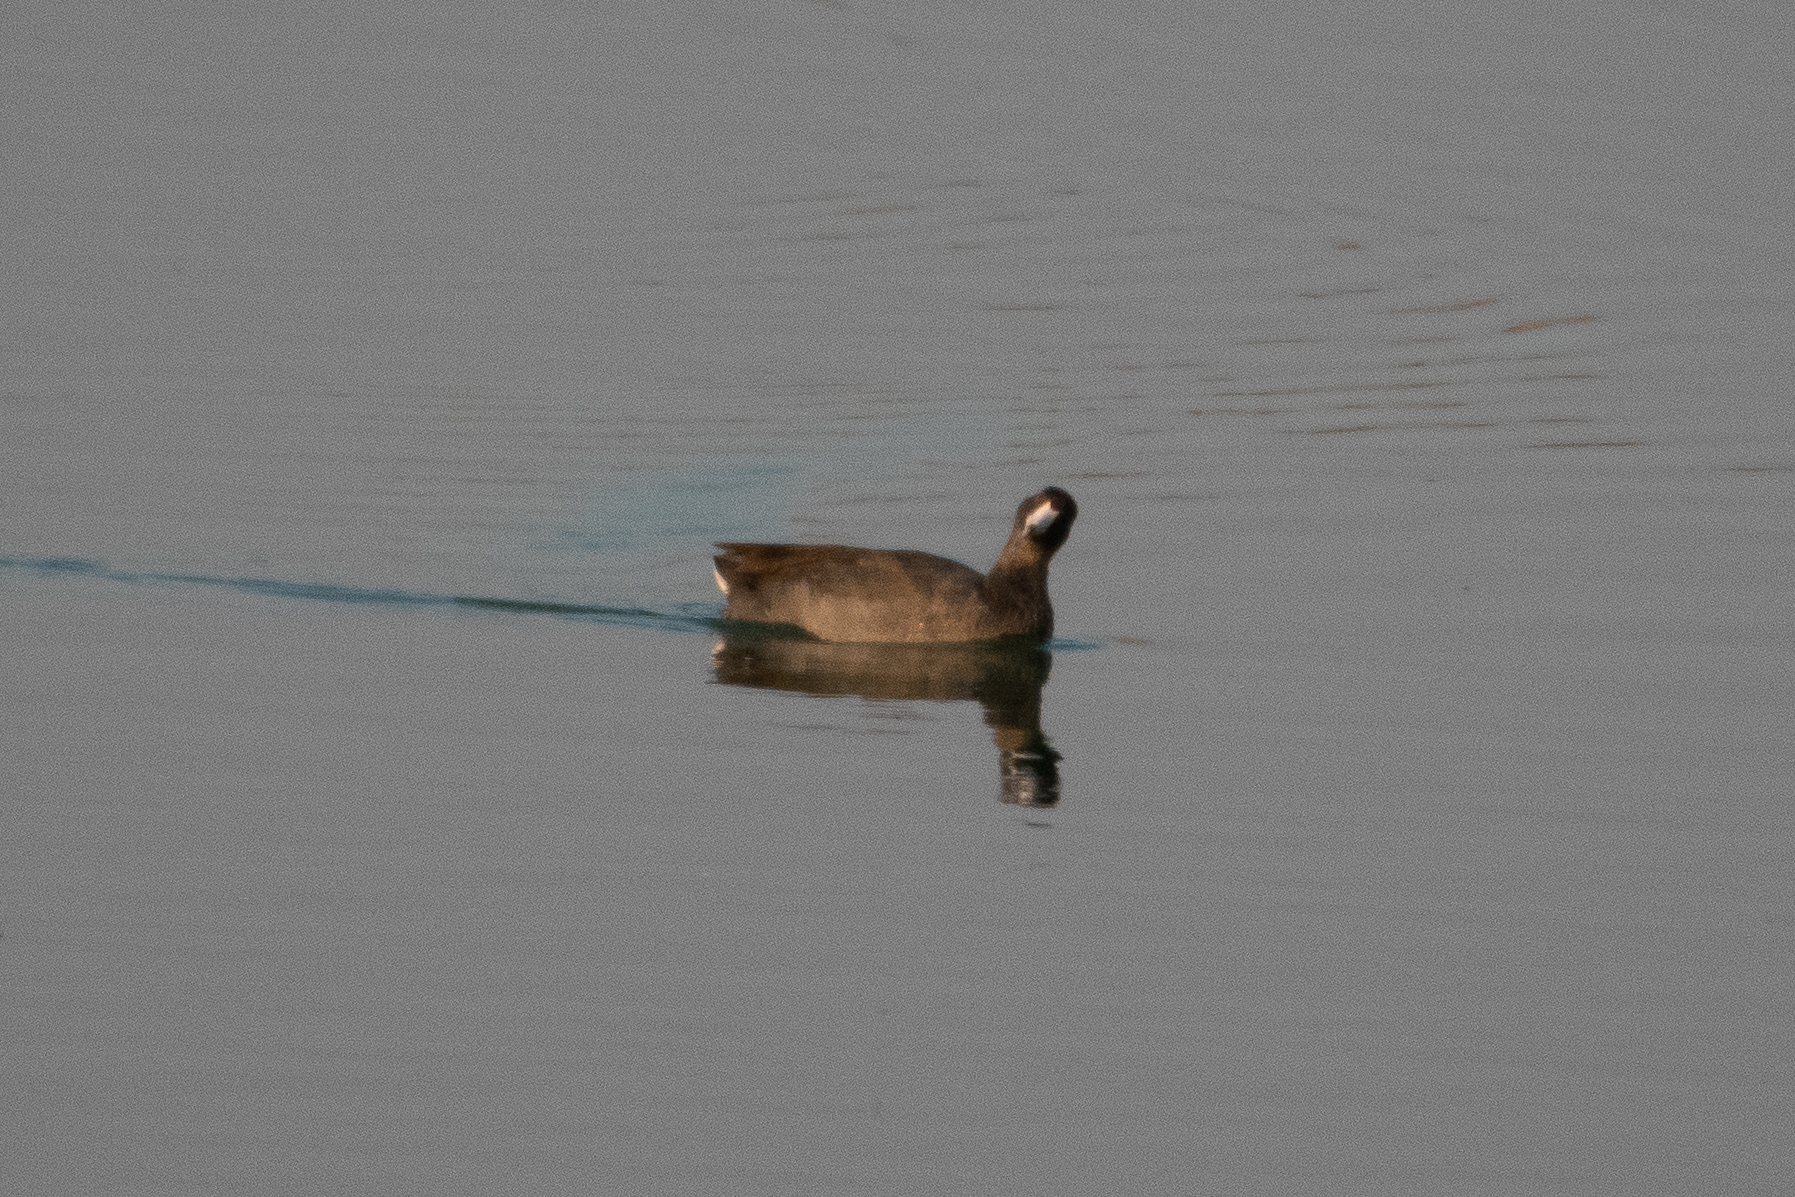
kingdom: Animalia
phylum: Chordata
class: Aves
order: Gruiformes
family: Rallidae
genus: Fulica
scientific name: Fulica americana
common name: American coot
